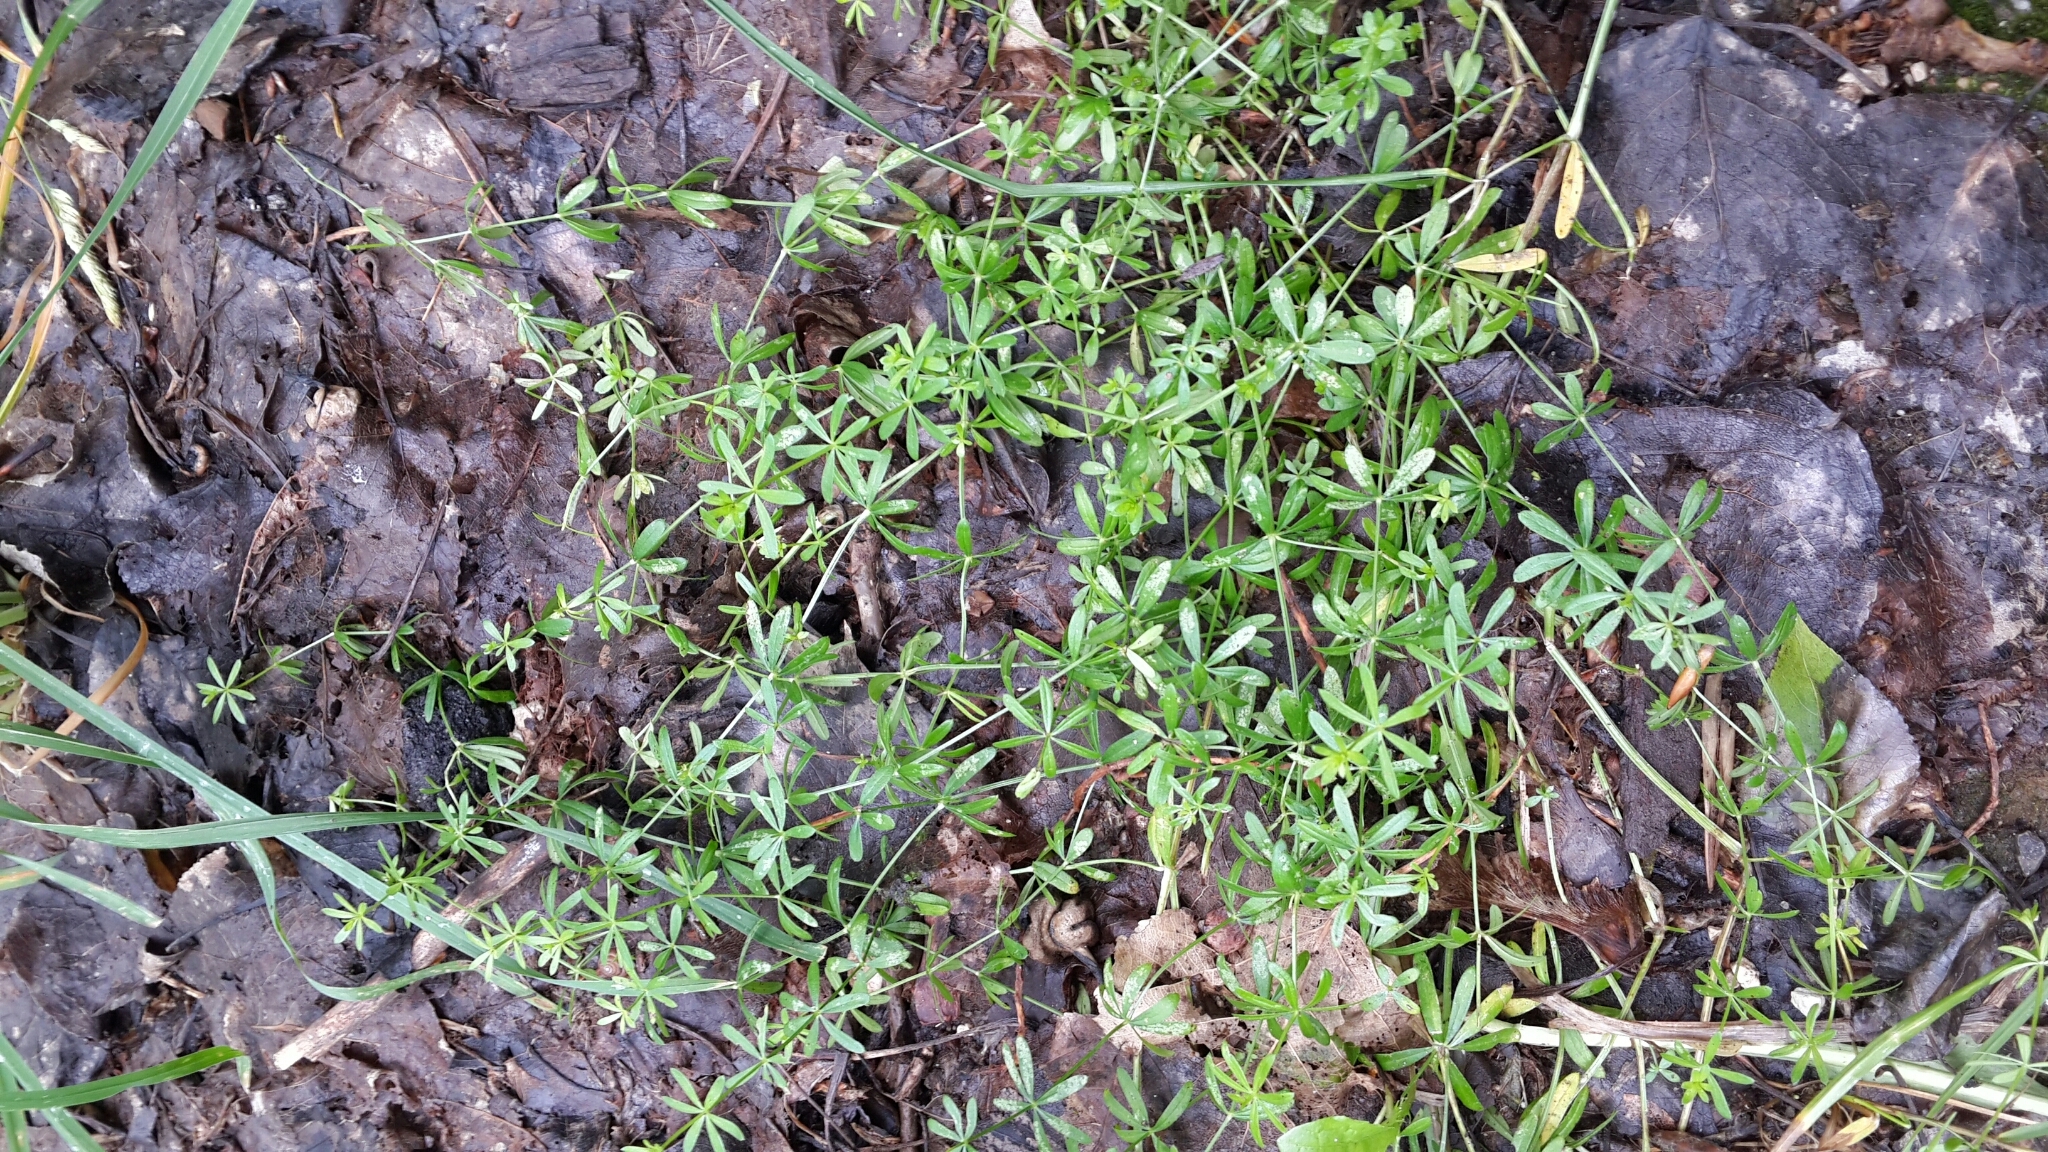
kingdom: Plantae
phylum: Tracheophyta
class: Magnoliopsida
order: Gentianales
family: Rubiaceae
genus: Galium
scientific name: Galium
